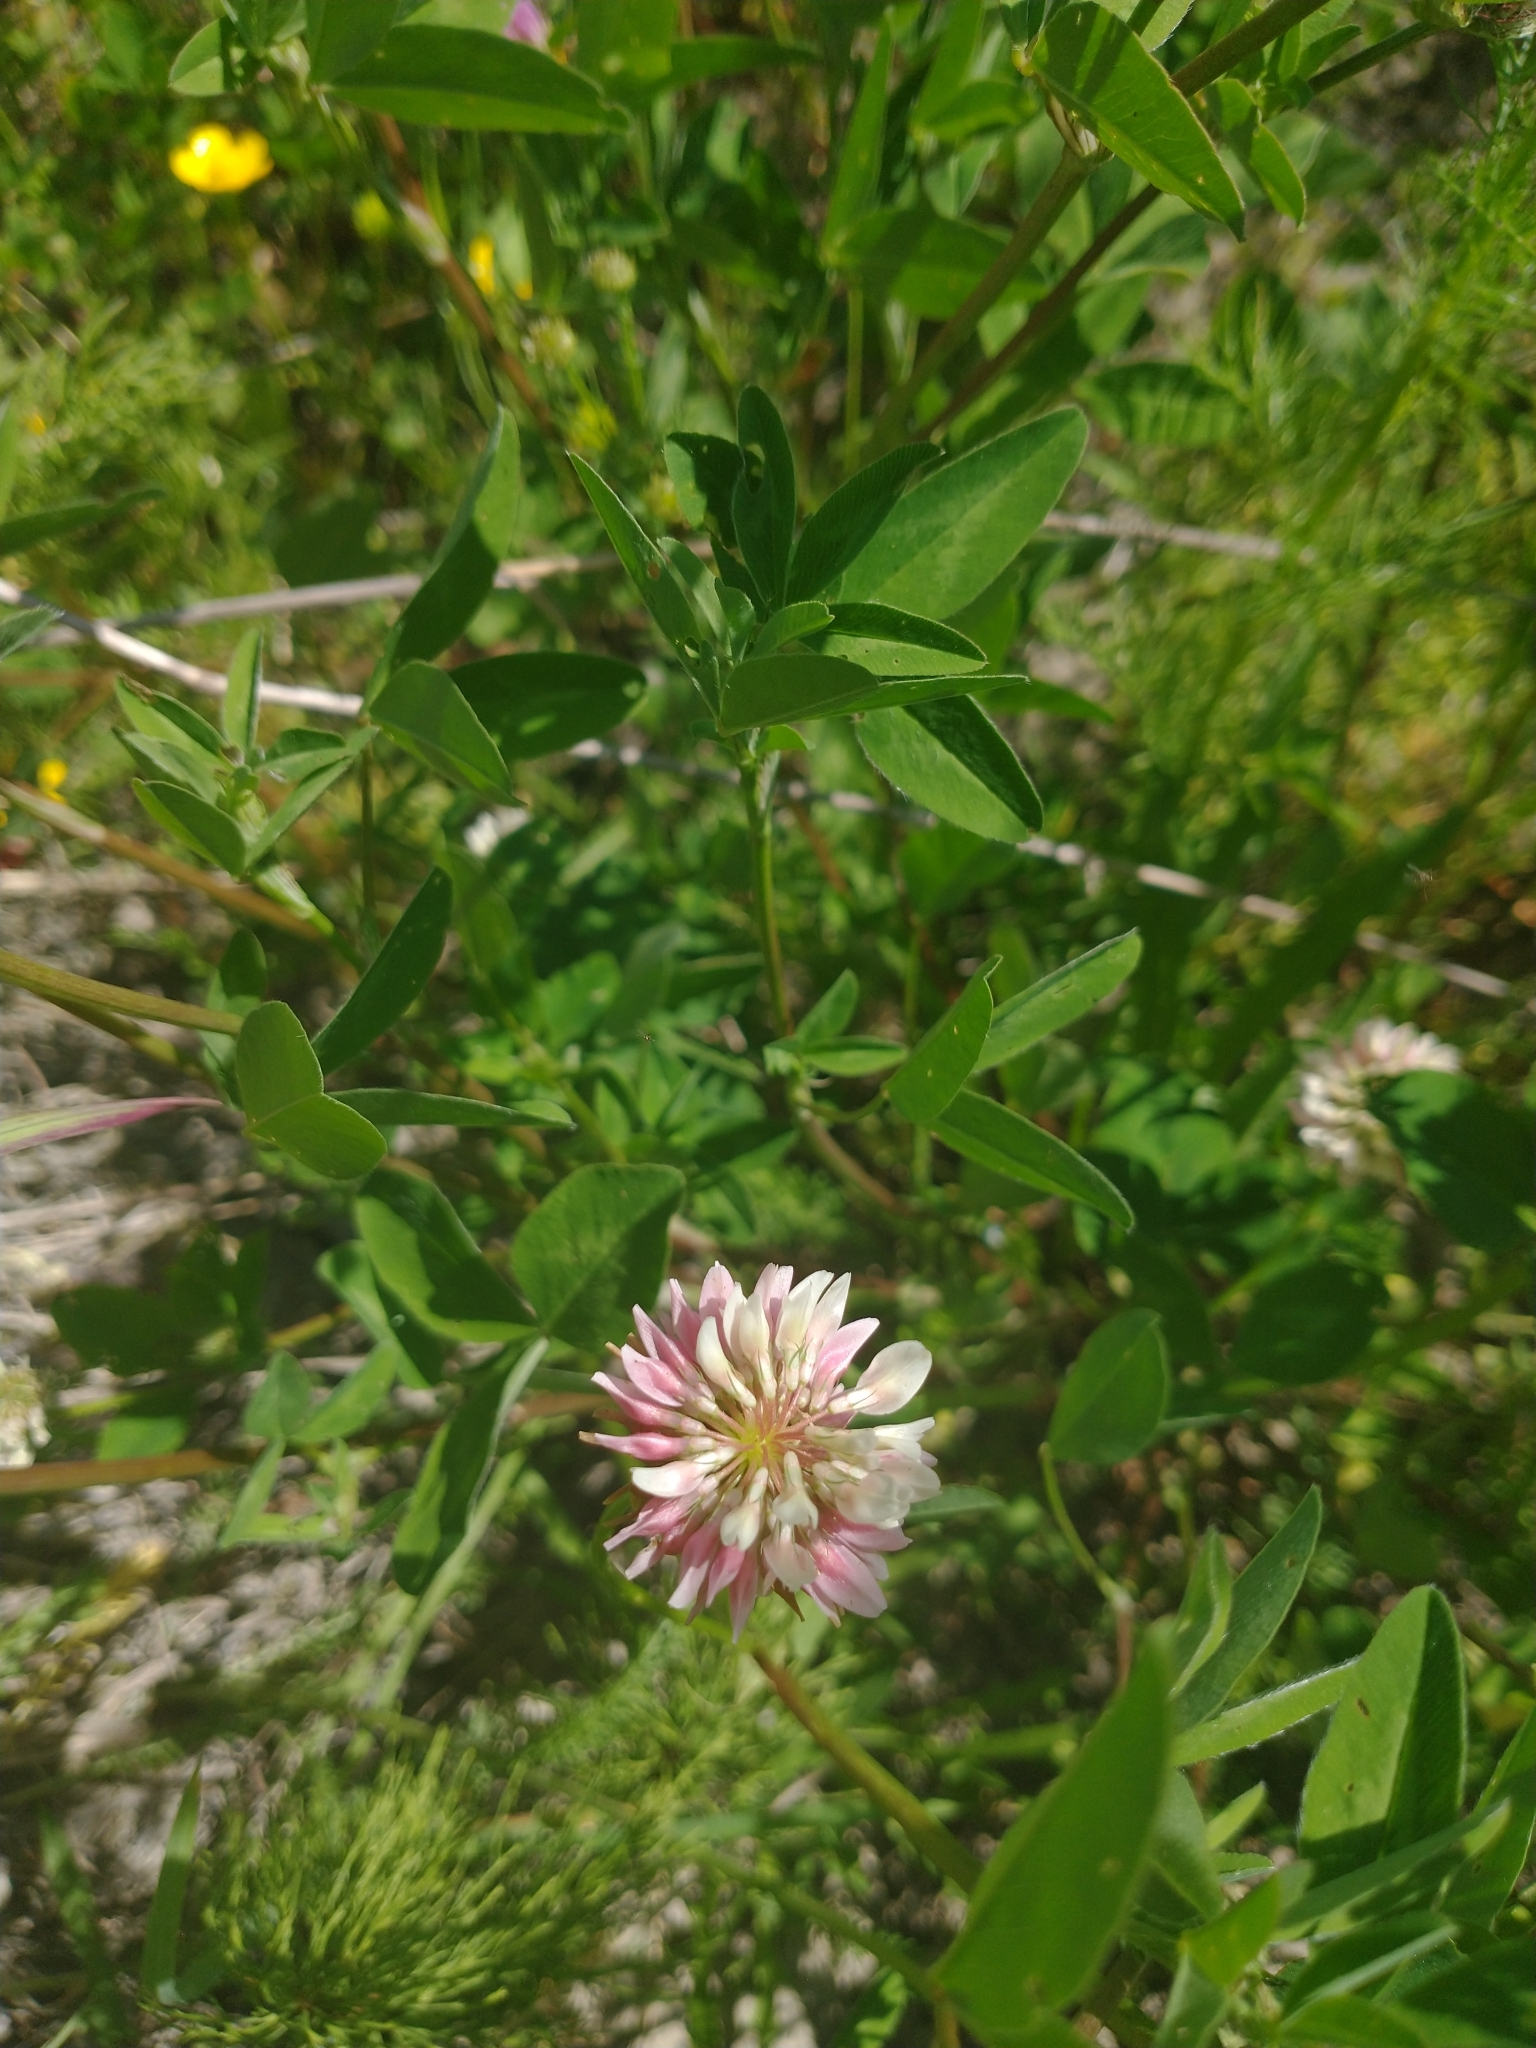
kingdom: Plantae
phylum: Tracheophyta
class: Magnoliopsida
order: Fabales
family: Fabaceae
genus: Trifolium
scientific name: Trifolium hybridum
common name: Alsike clover
